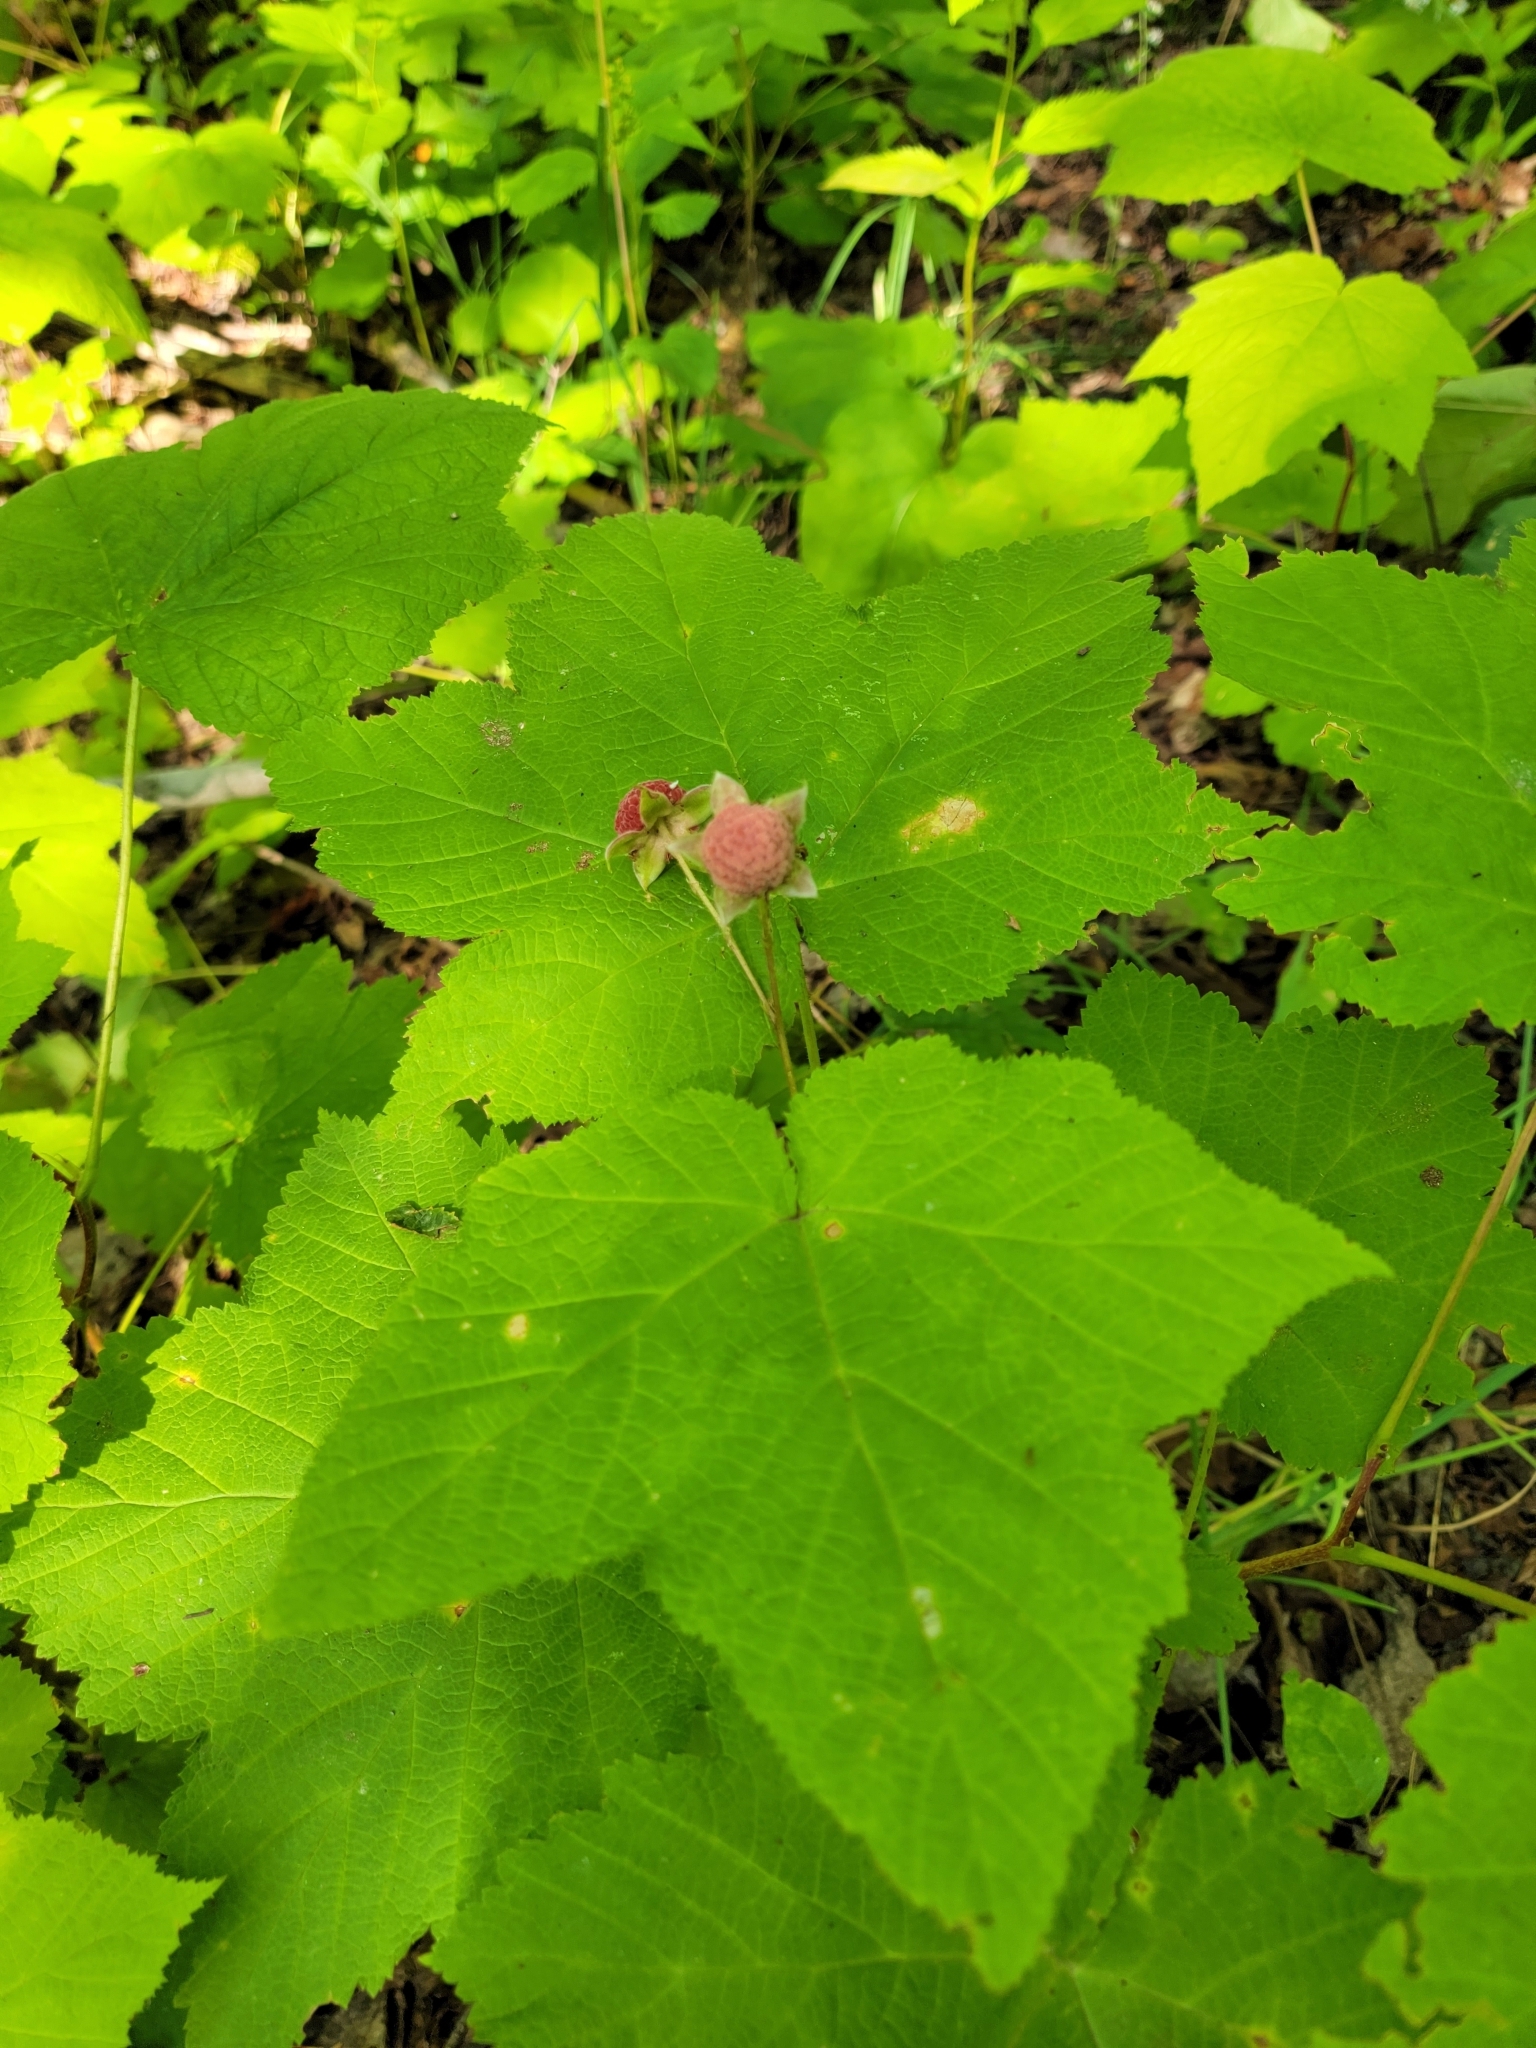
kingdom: Plantae
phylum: Tracheophyta
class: Magnoliopsida
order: Rosales
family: Rosaceae
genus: Rubus
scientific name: Rubus parviflorus
